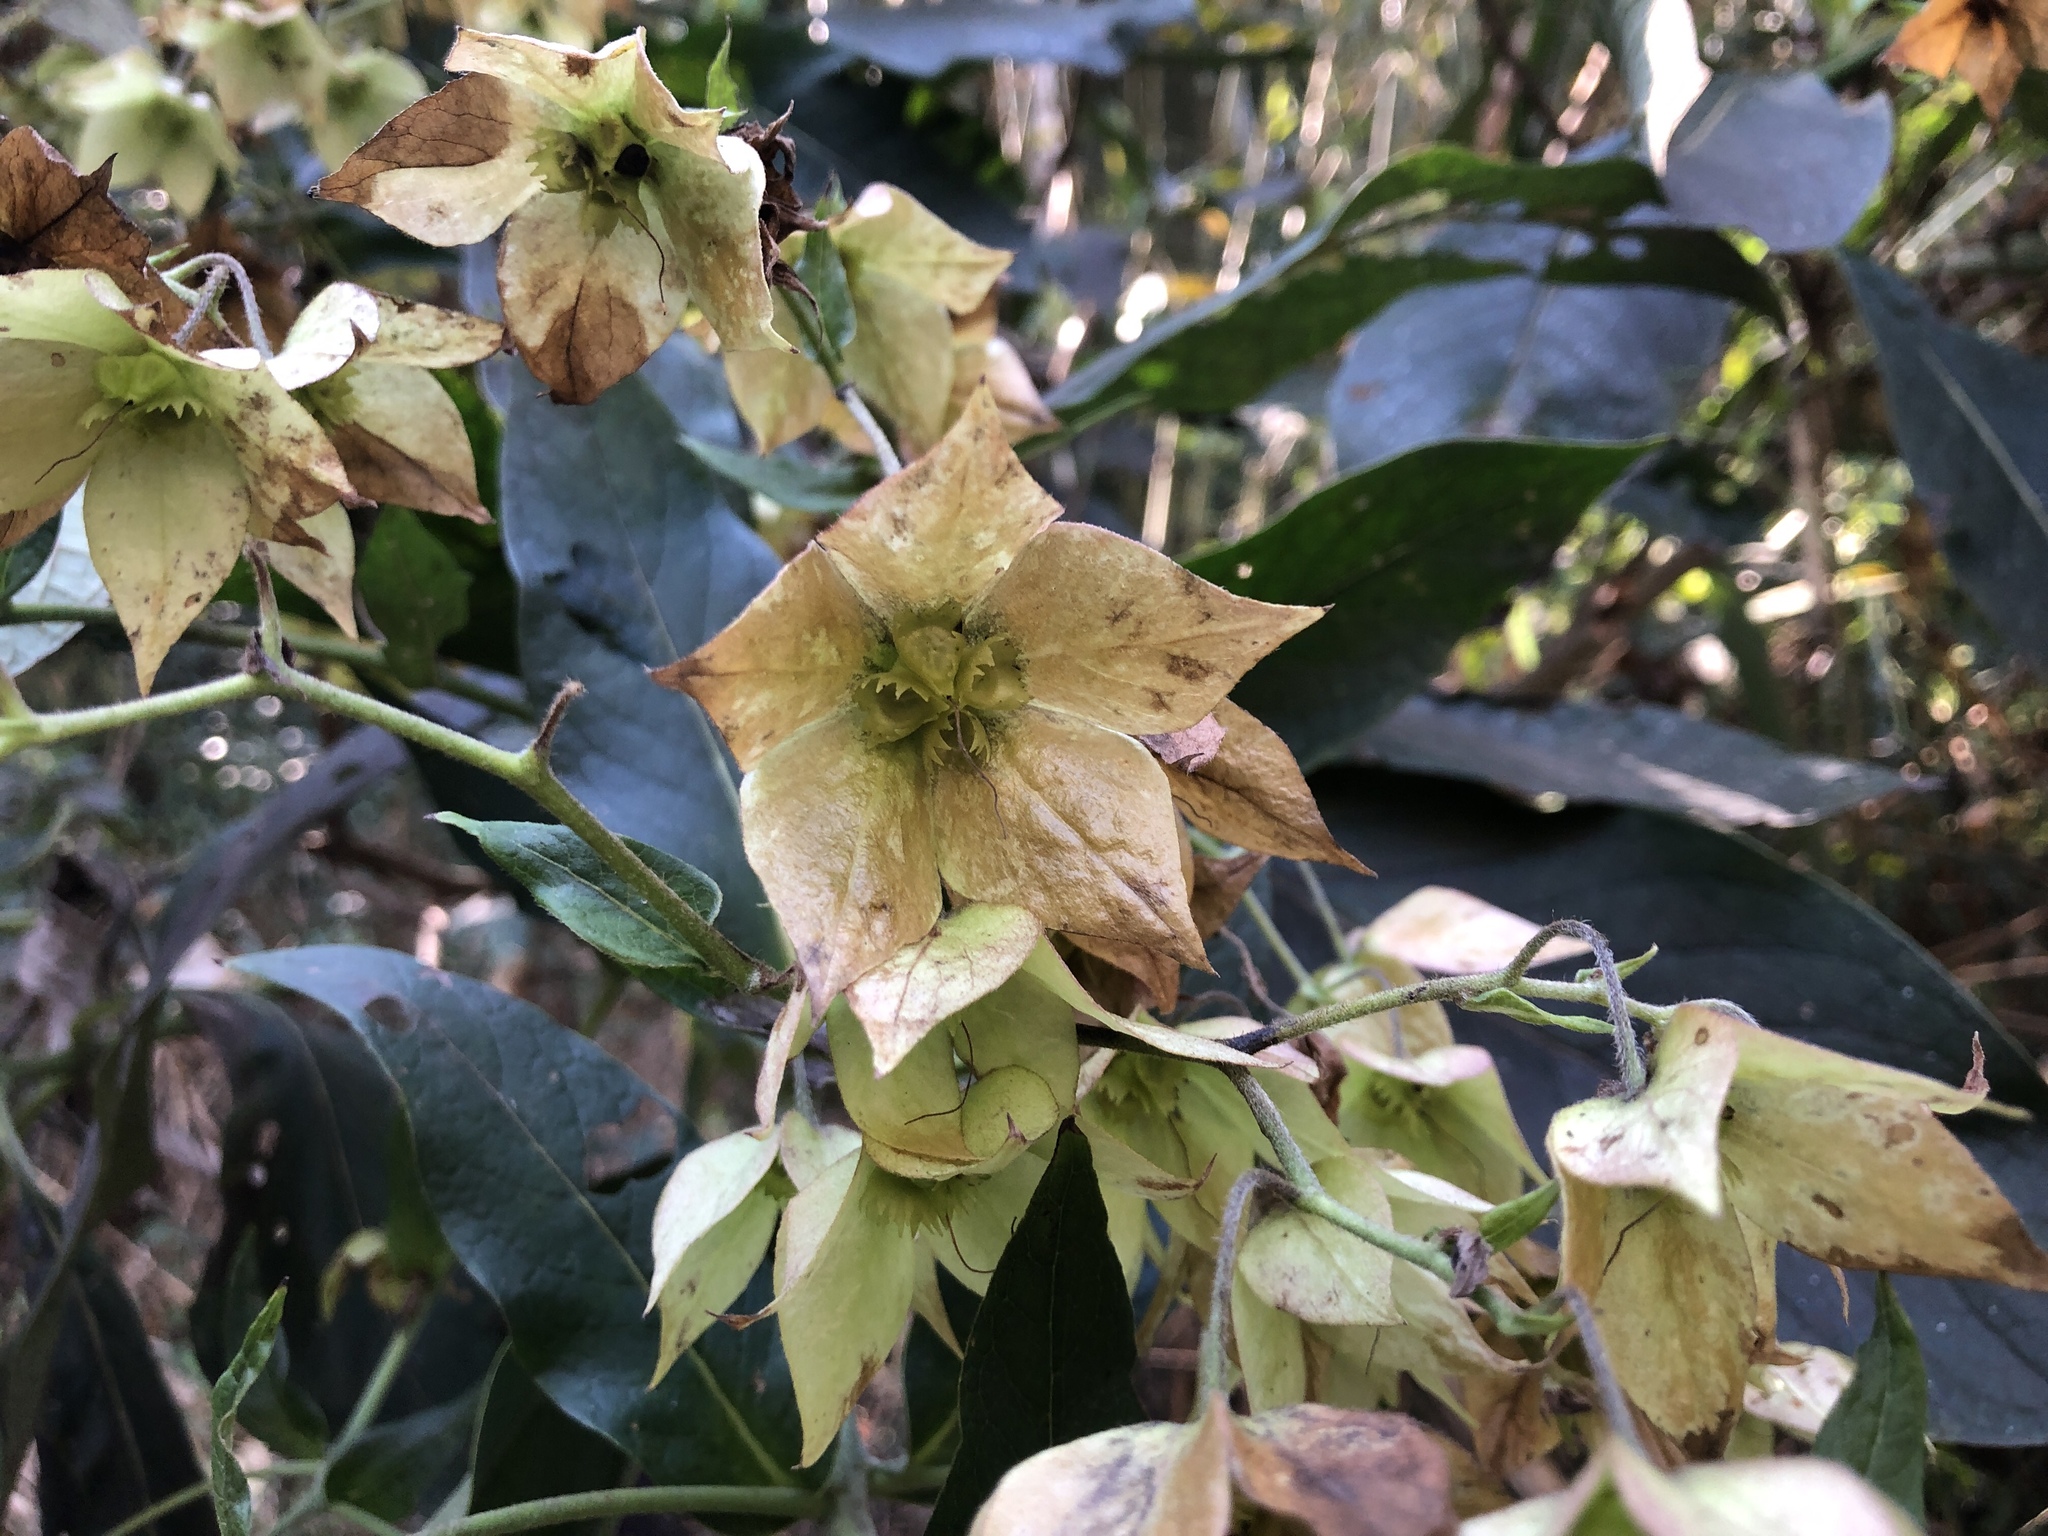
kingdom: Plantae
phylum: Tracheophyta
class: Magnoliopsida
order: Boraginales
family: Boraginaceae
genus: Trichodesma
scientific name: Trichodesma calycosum
